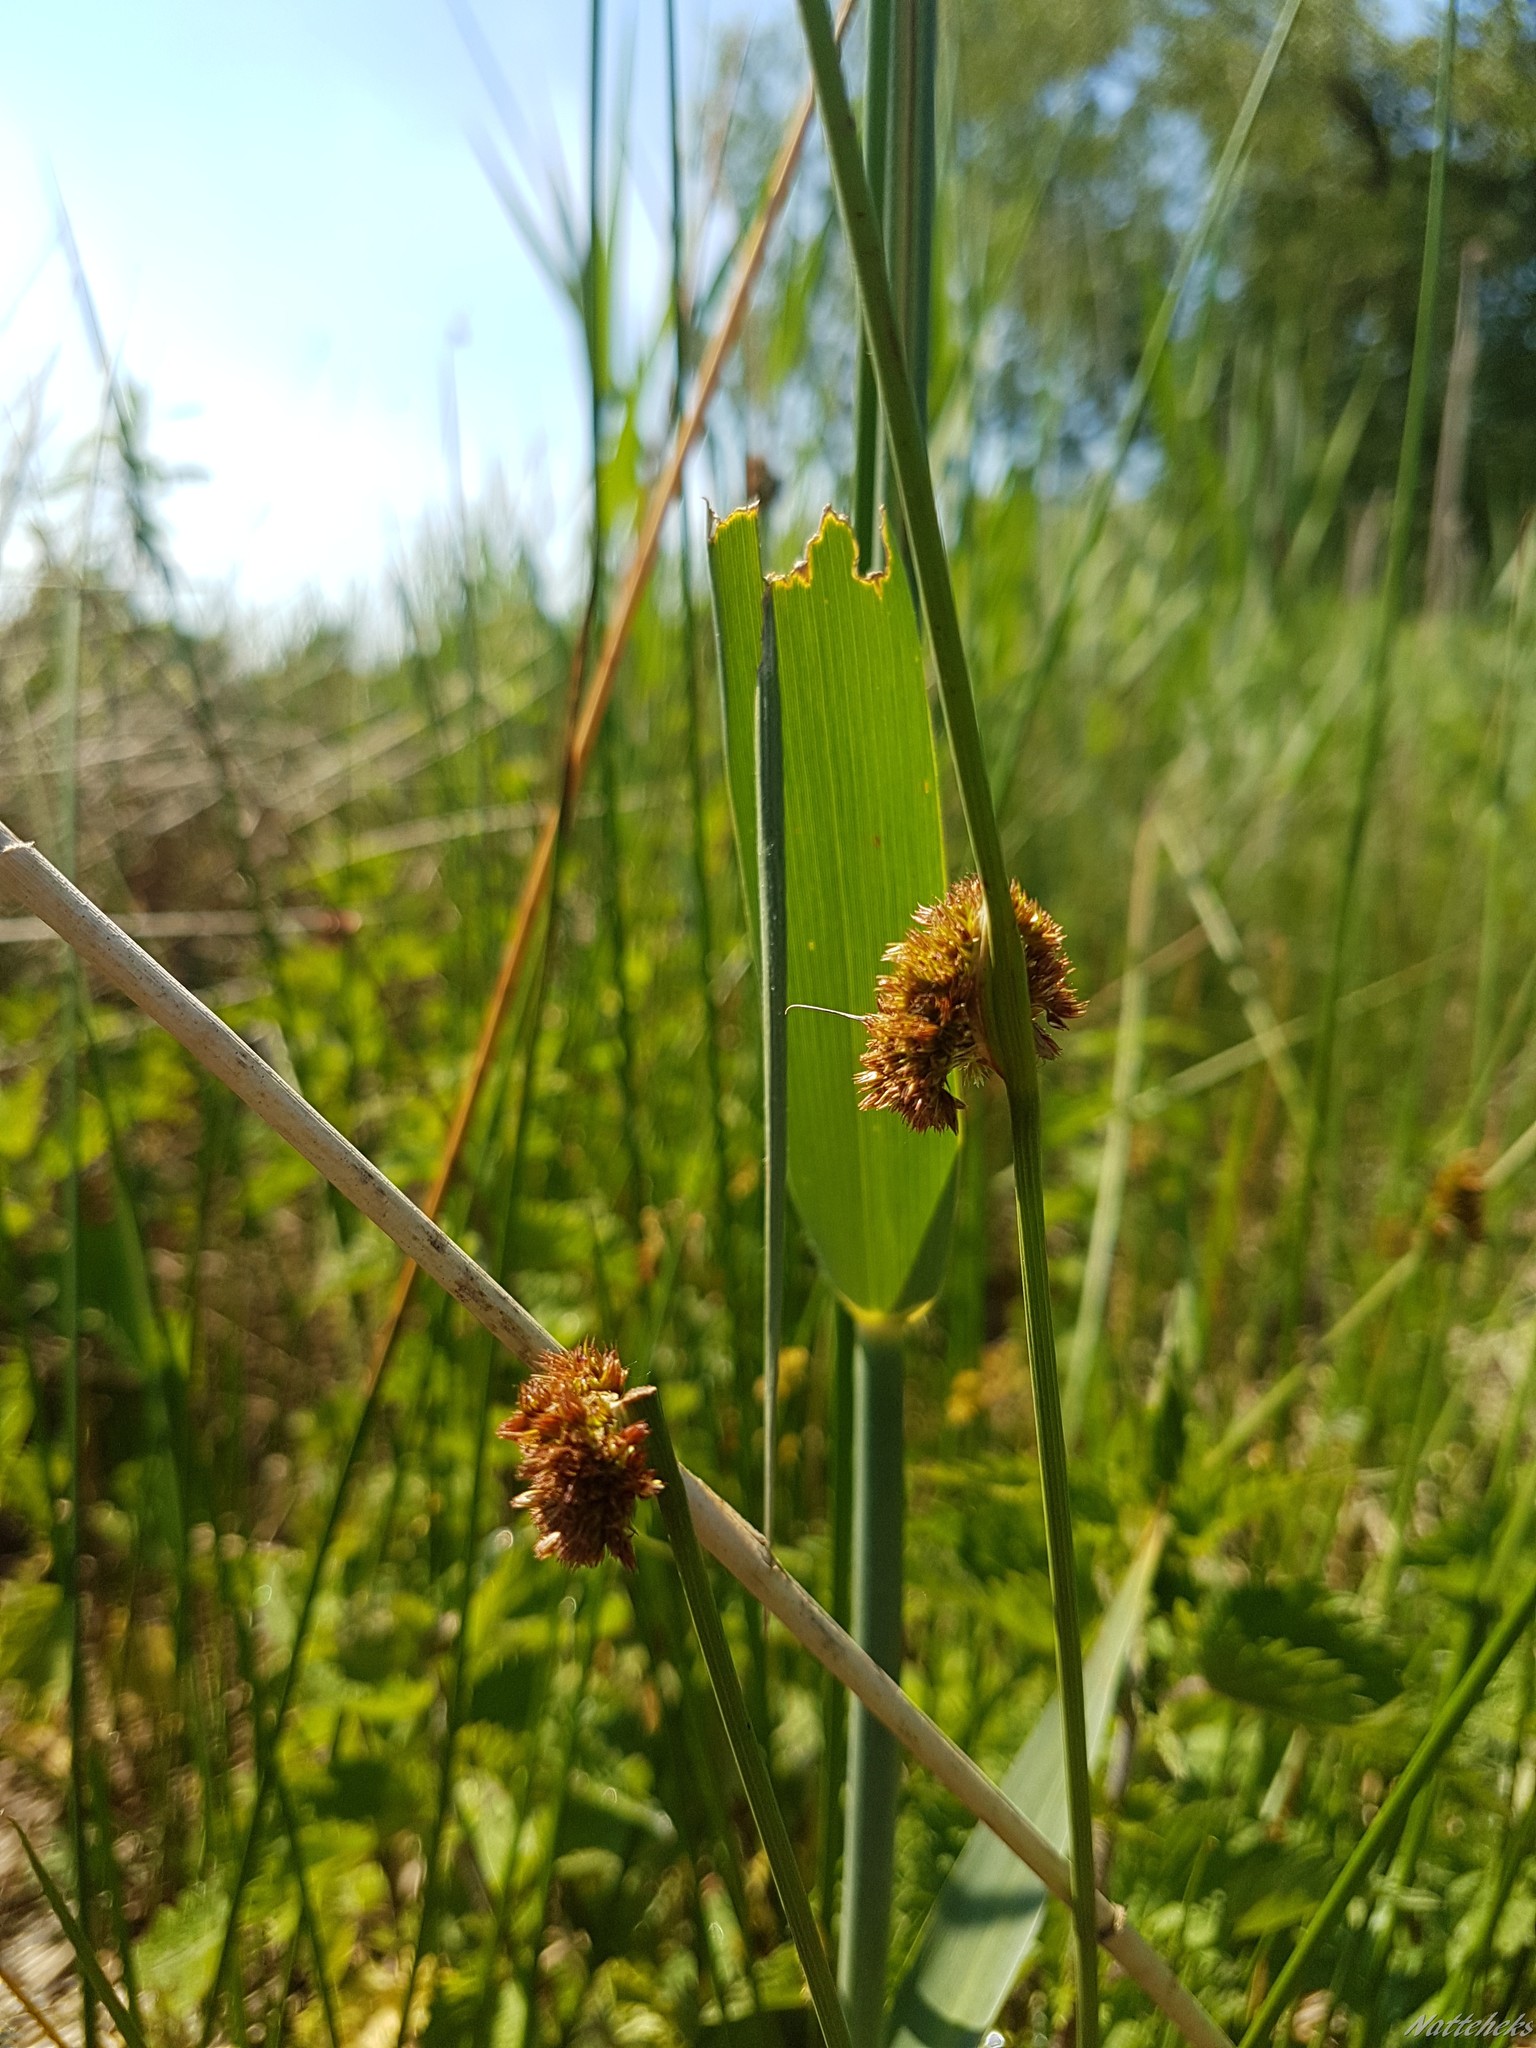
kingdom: Plantae
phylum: Tracheophyta
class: Liliopsida
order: Poales
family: Juncaceae
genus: Juncus
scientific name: Juncus conglomeratus
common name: Compact rush
